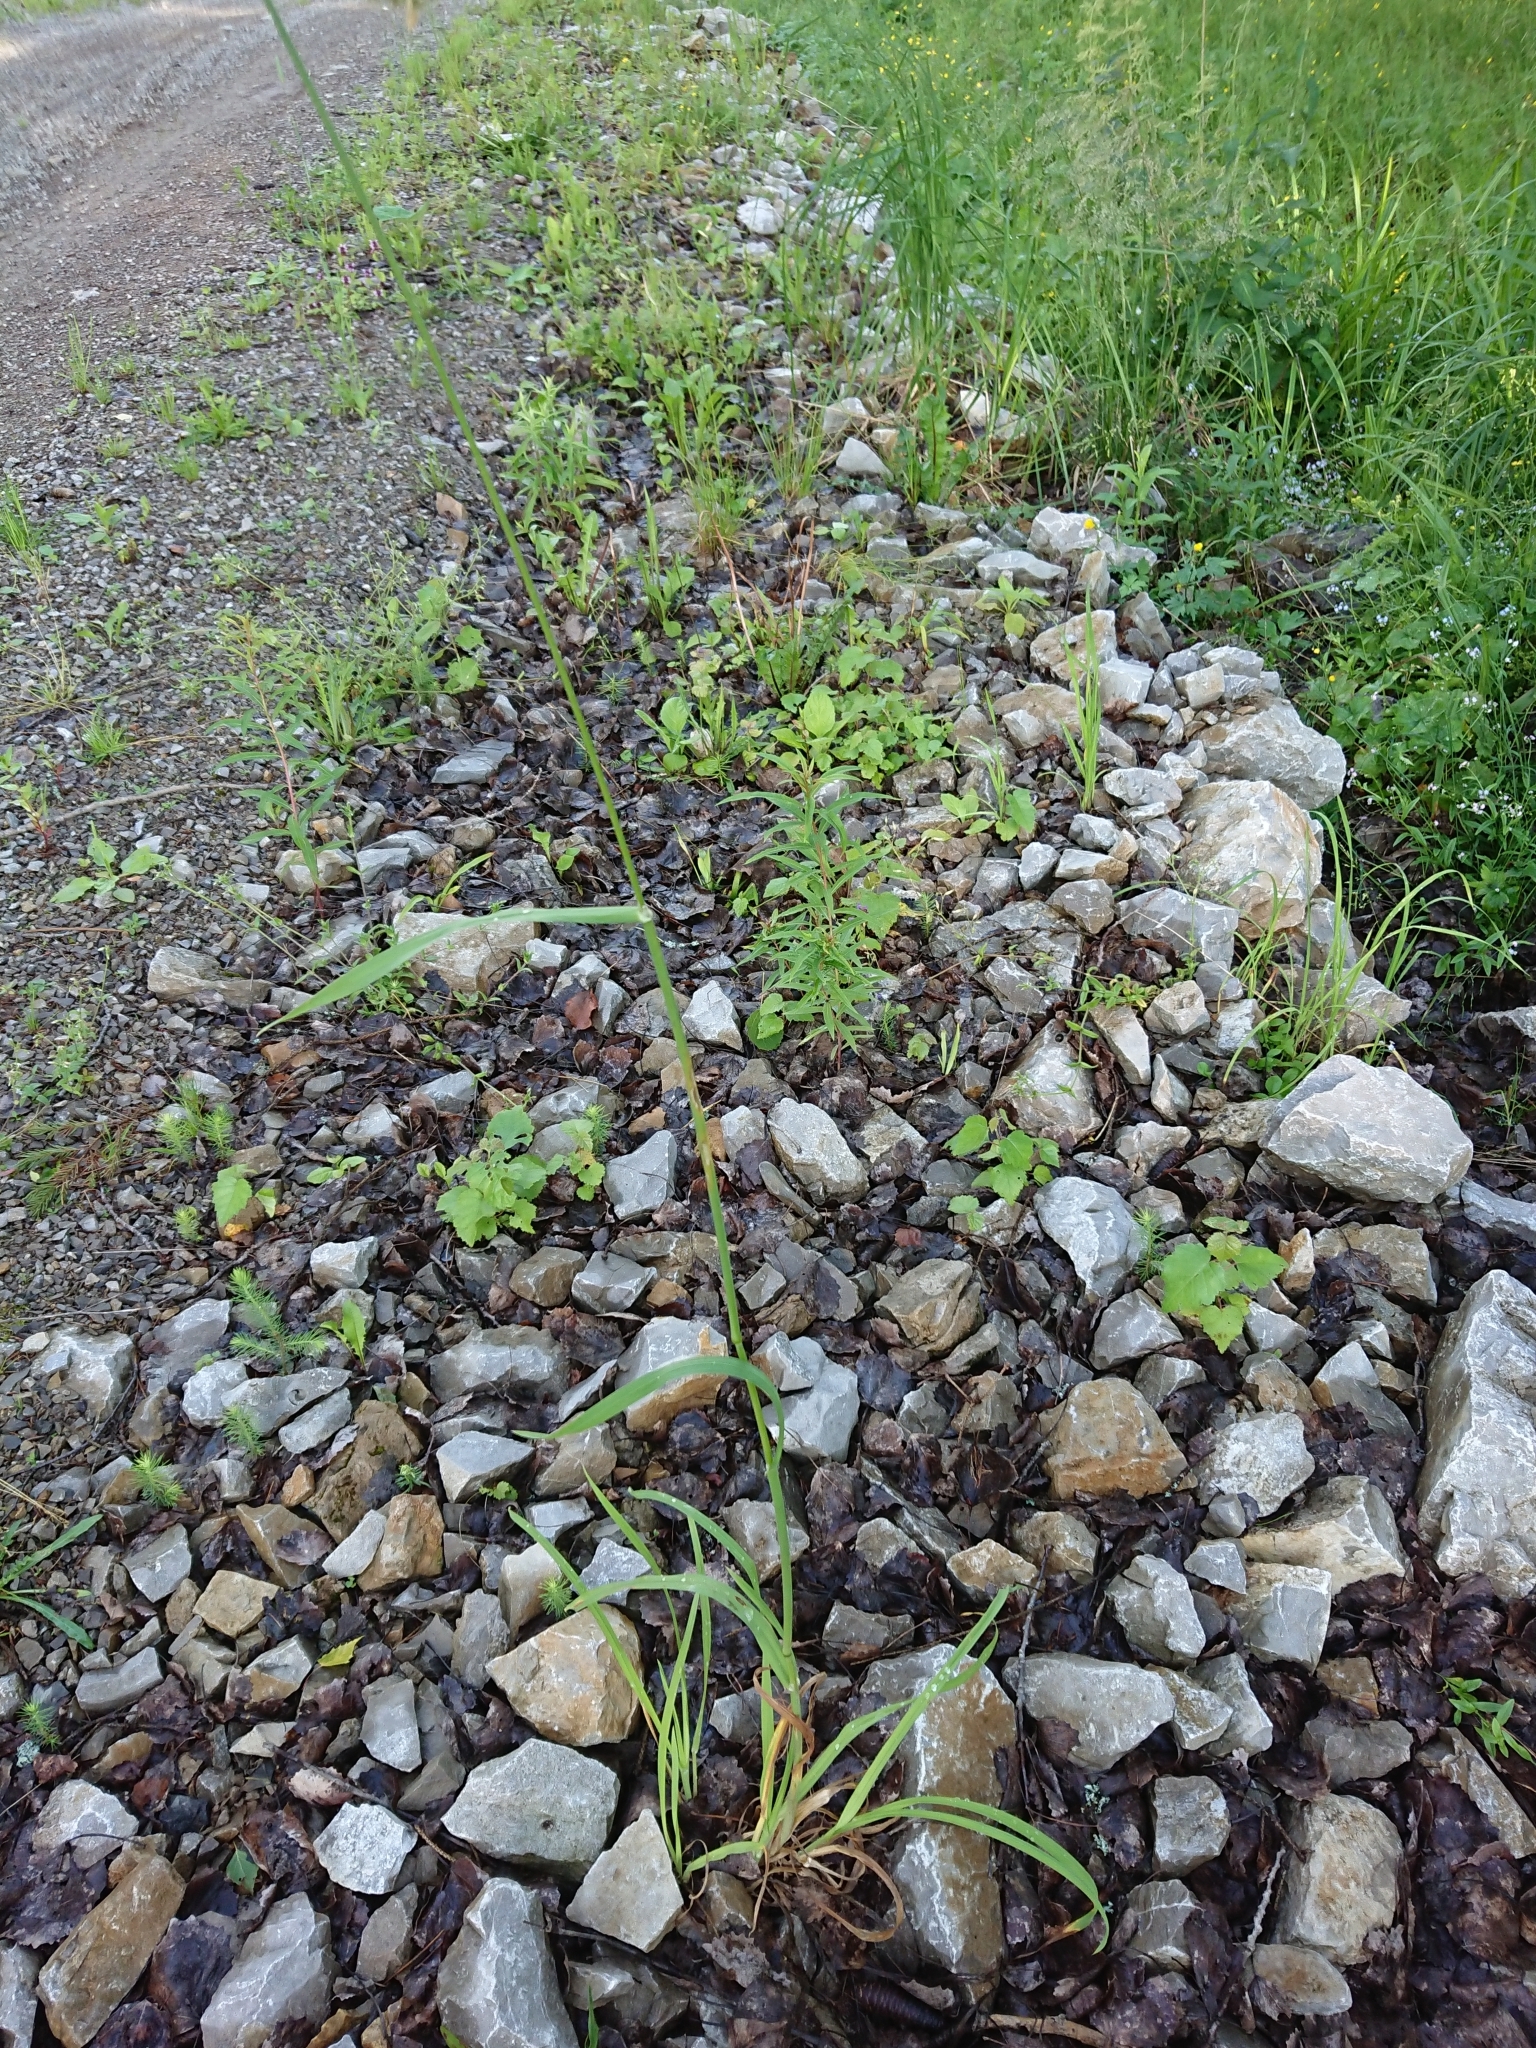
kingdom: Plantae
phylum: Tracheophyta
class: Liliopsida
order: Poales
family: Poaceae
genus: Dactylis
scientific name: Dactylis glomerata
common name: Orchardgrass
